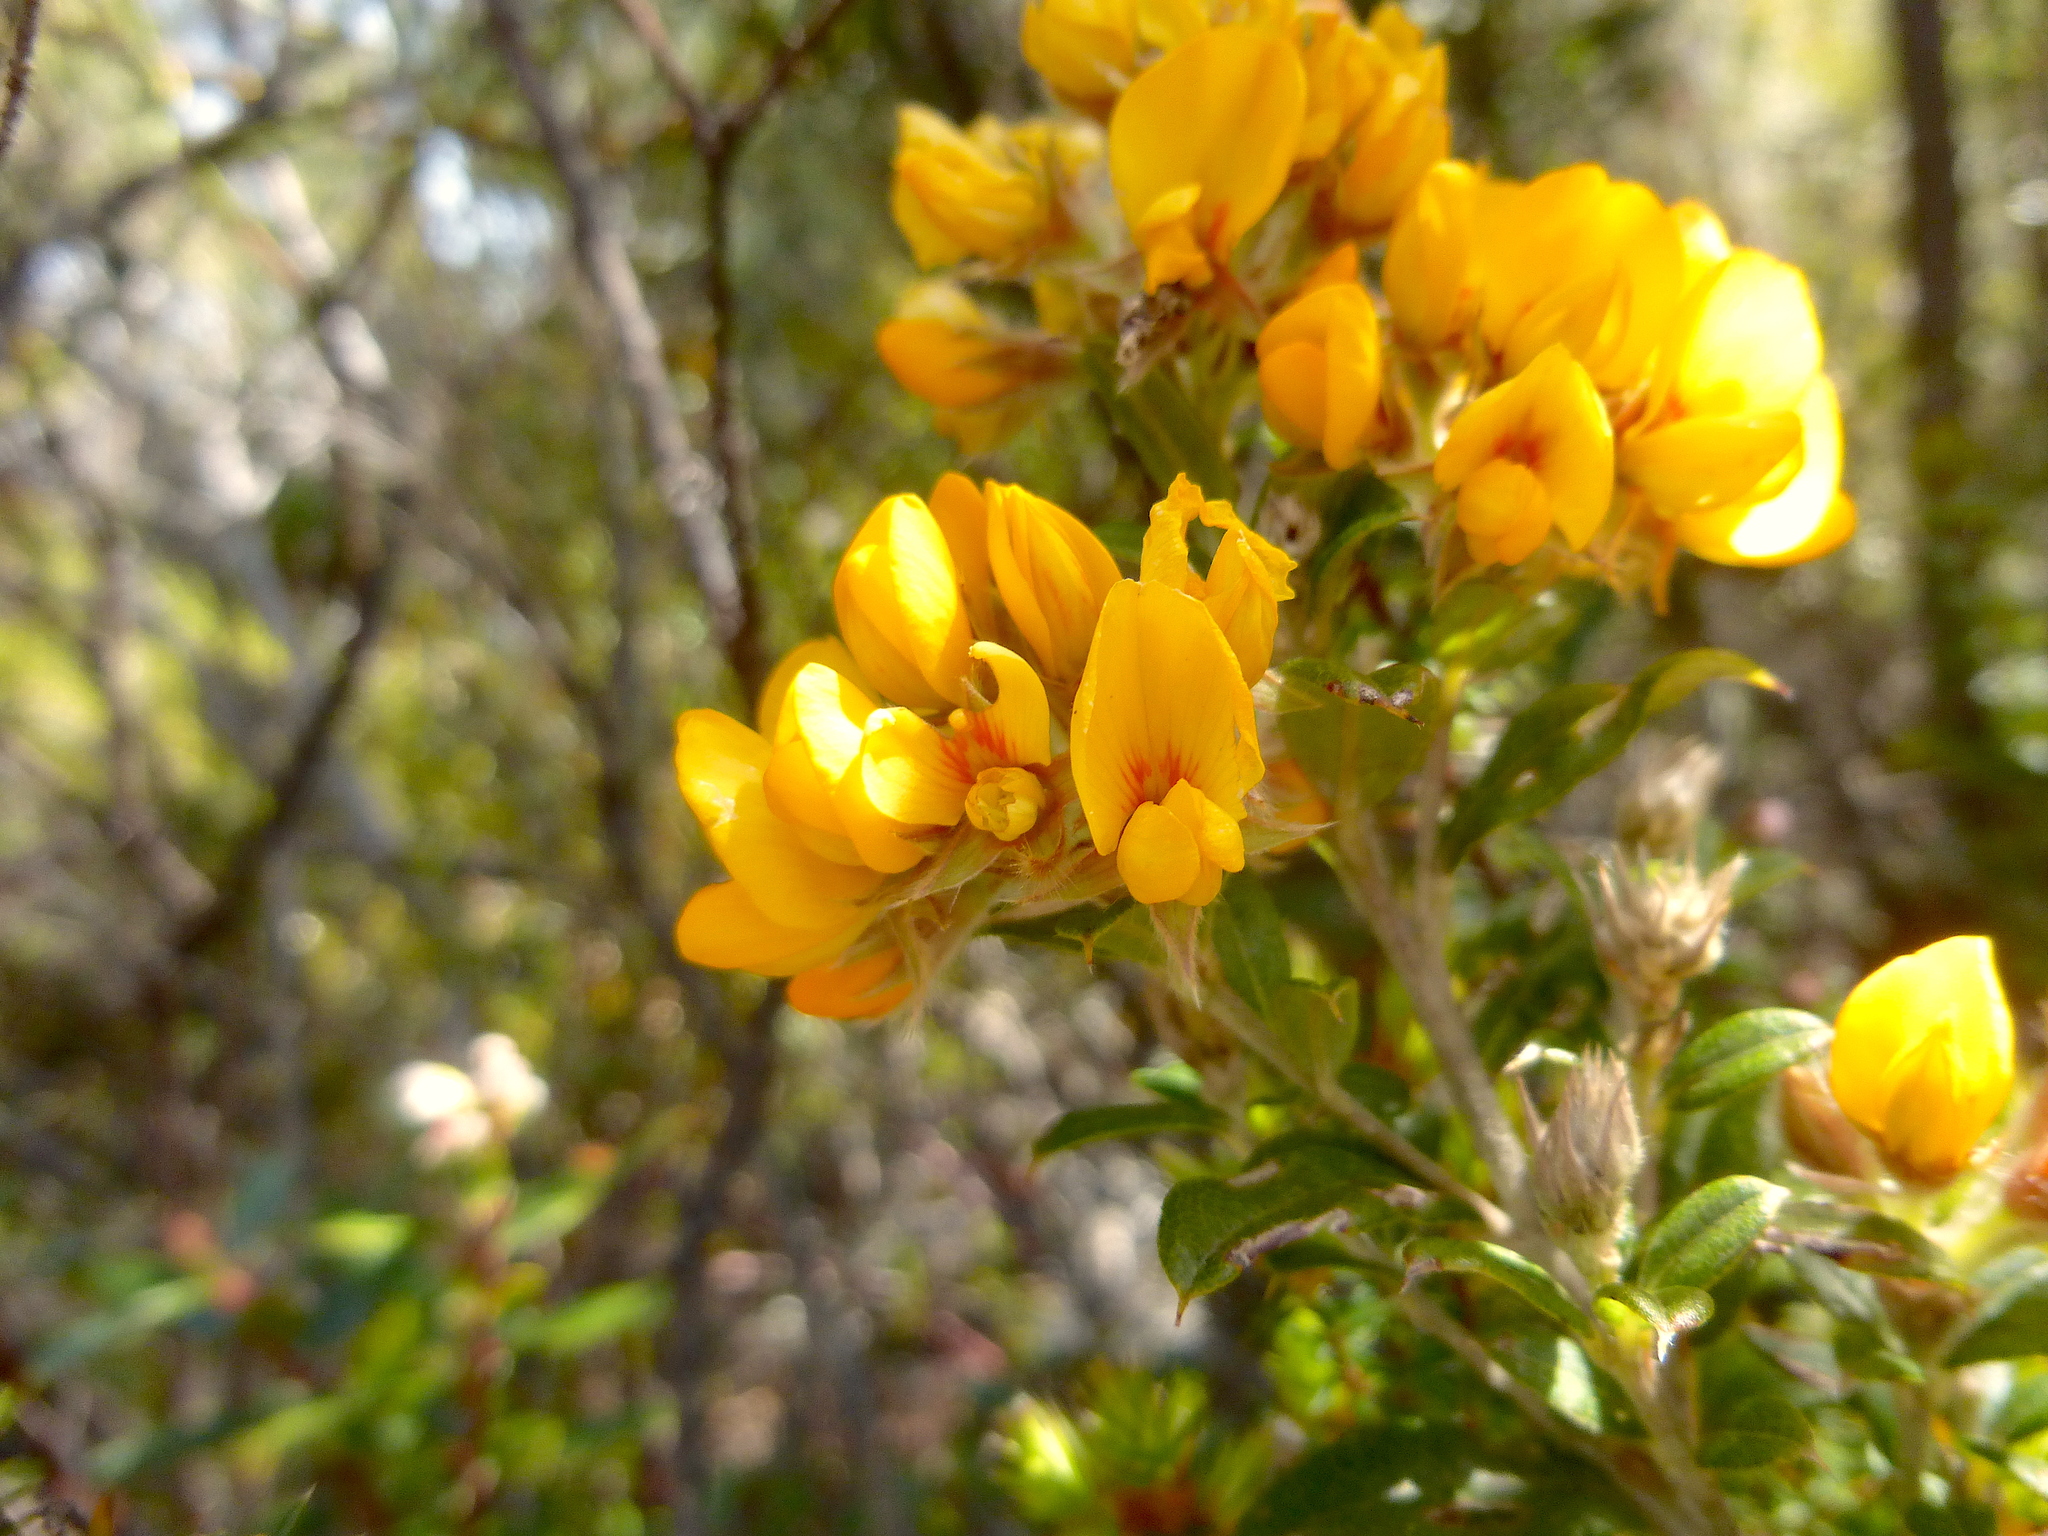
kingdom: Plantae
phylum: Tracheophyta
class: Magnoliopsida
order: Fabales
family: Fabaceae
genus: Oxylobium
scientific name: Oxylobium ellipticum
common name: Golden shaggy-pea
